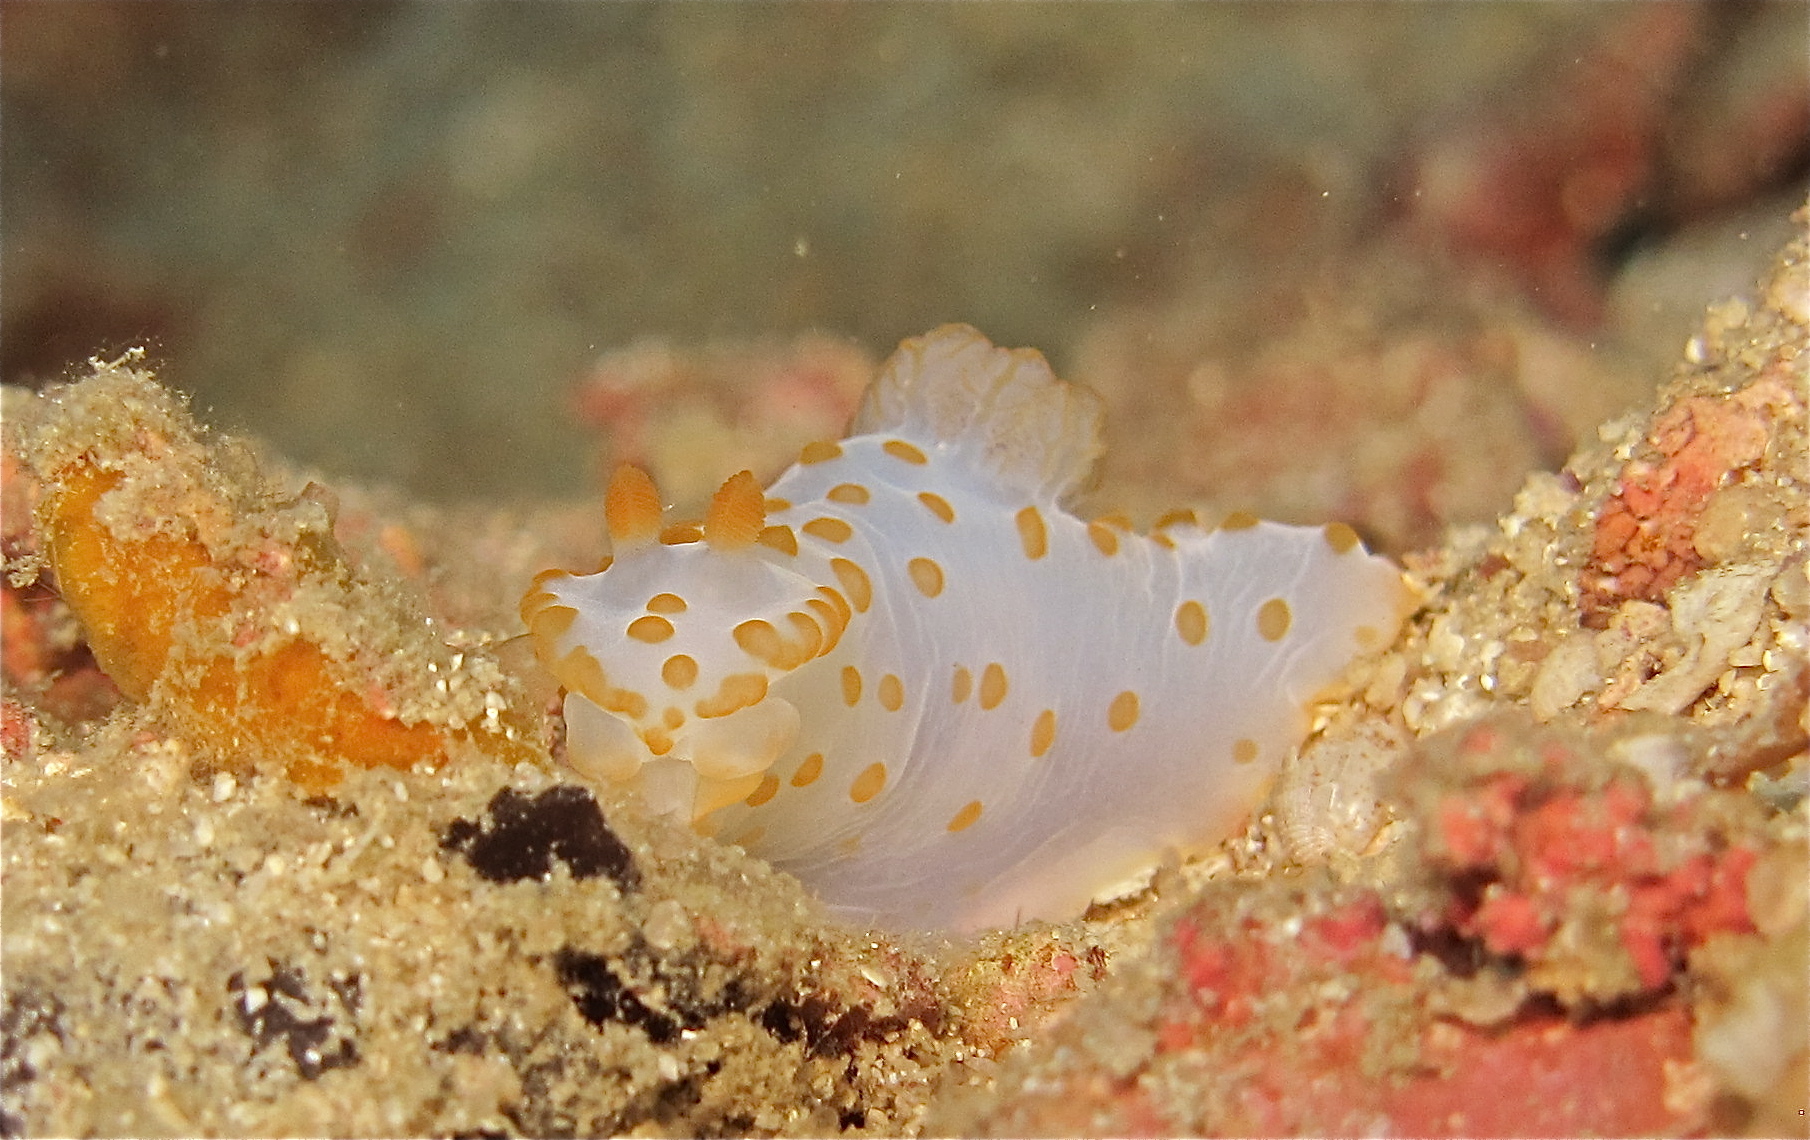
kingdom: Animalia
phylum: Mollusca
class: Gastropoda
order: Nudibranchia
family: Polyceridae
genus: Gymnodoris
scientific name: Gymnodoris impudica
